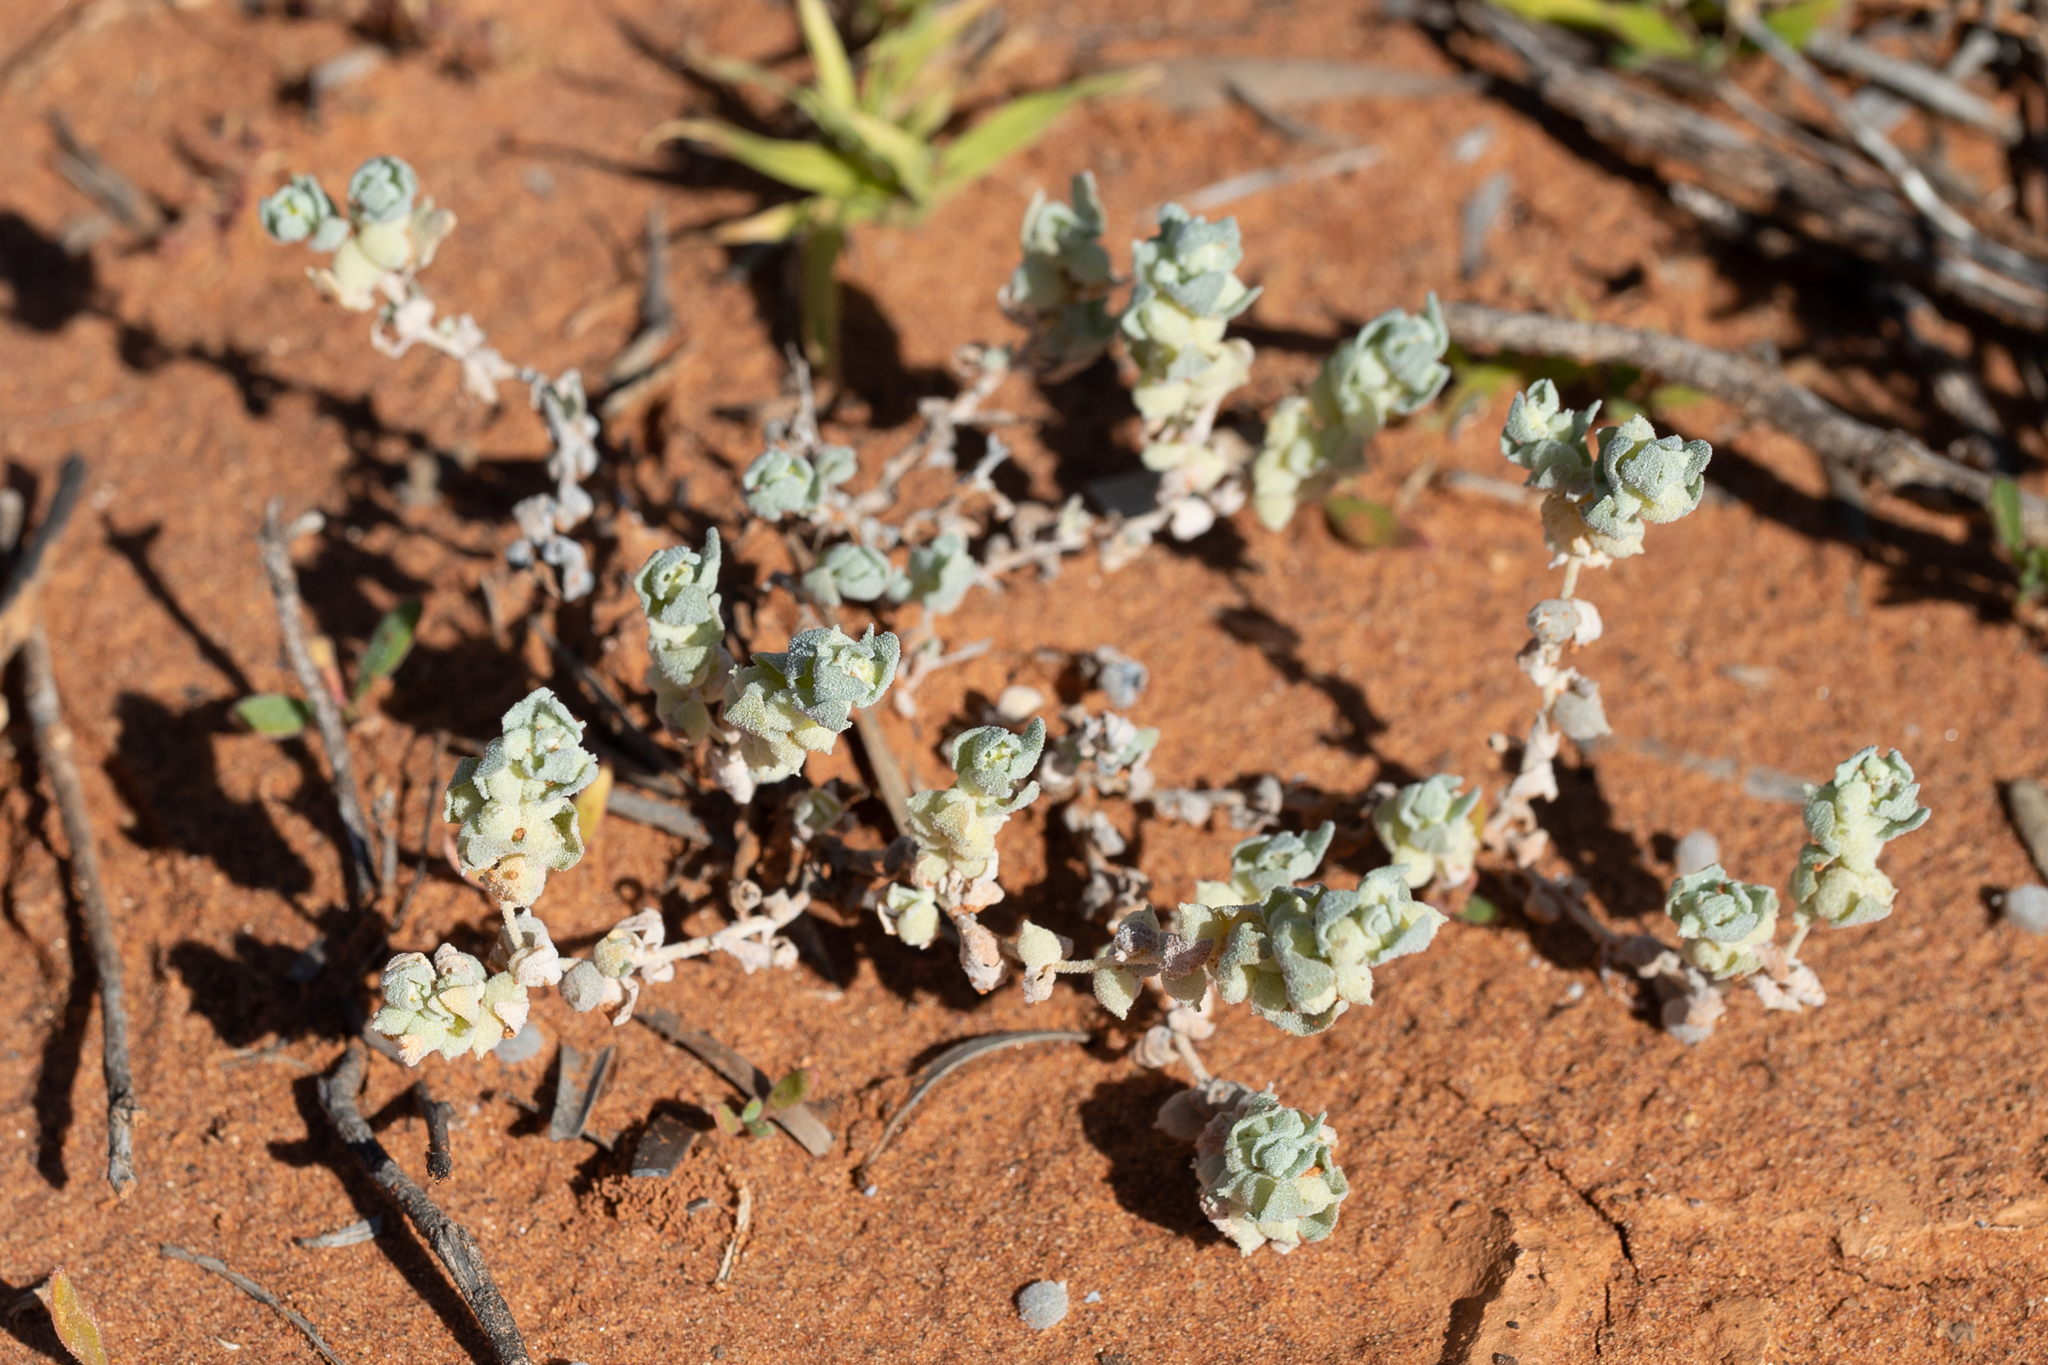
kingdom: Plantae
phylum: Tracheophyta
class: Magnoliopsida
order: Caryophyllales
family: Amaranthaceae
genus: Atriplex
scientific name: Atriplex spongiosa
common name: Pop saltbush
